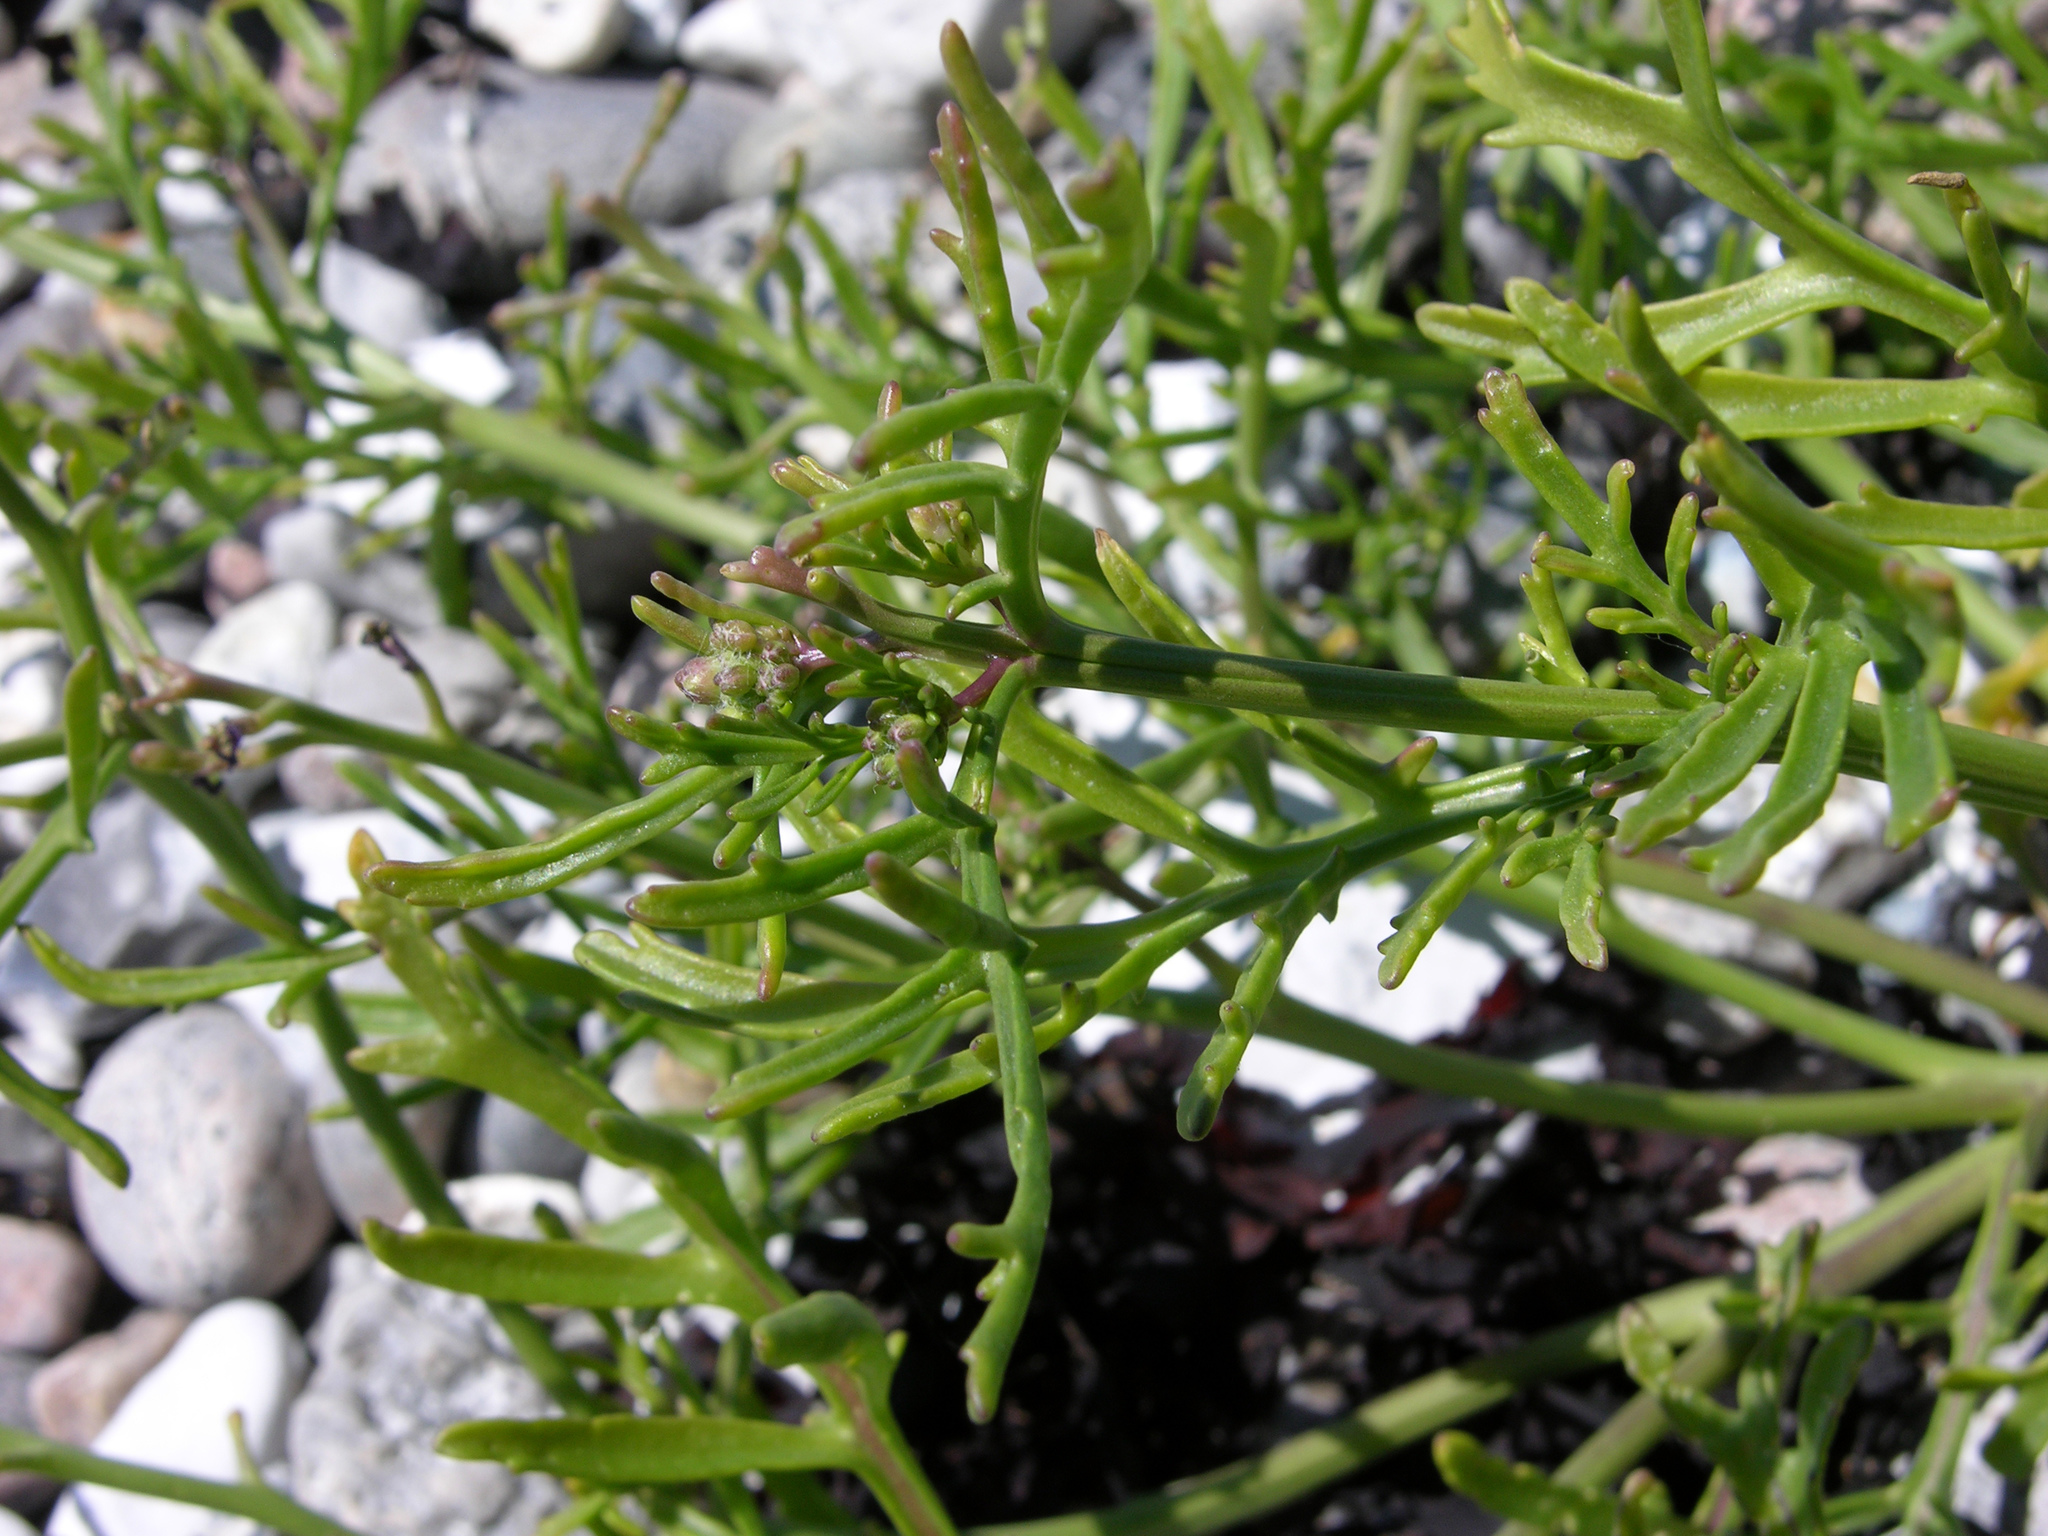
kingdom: Plantae
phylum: Tracheophyta
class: Magnoliopsida
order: Brassicales
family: Brassicaceae
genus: Cakile
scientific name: Cakile maritima
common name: Sea rocket
